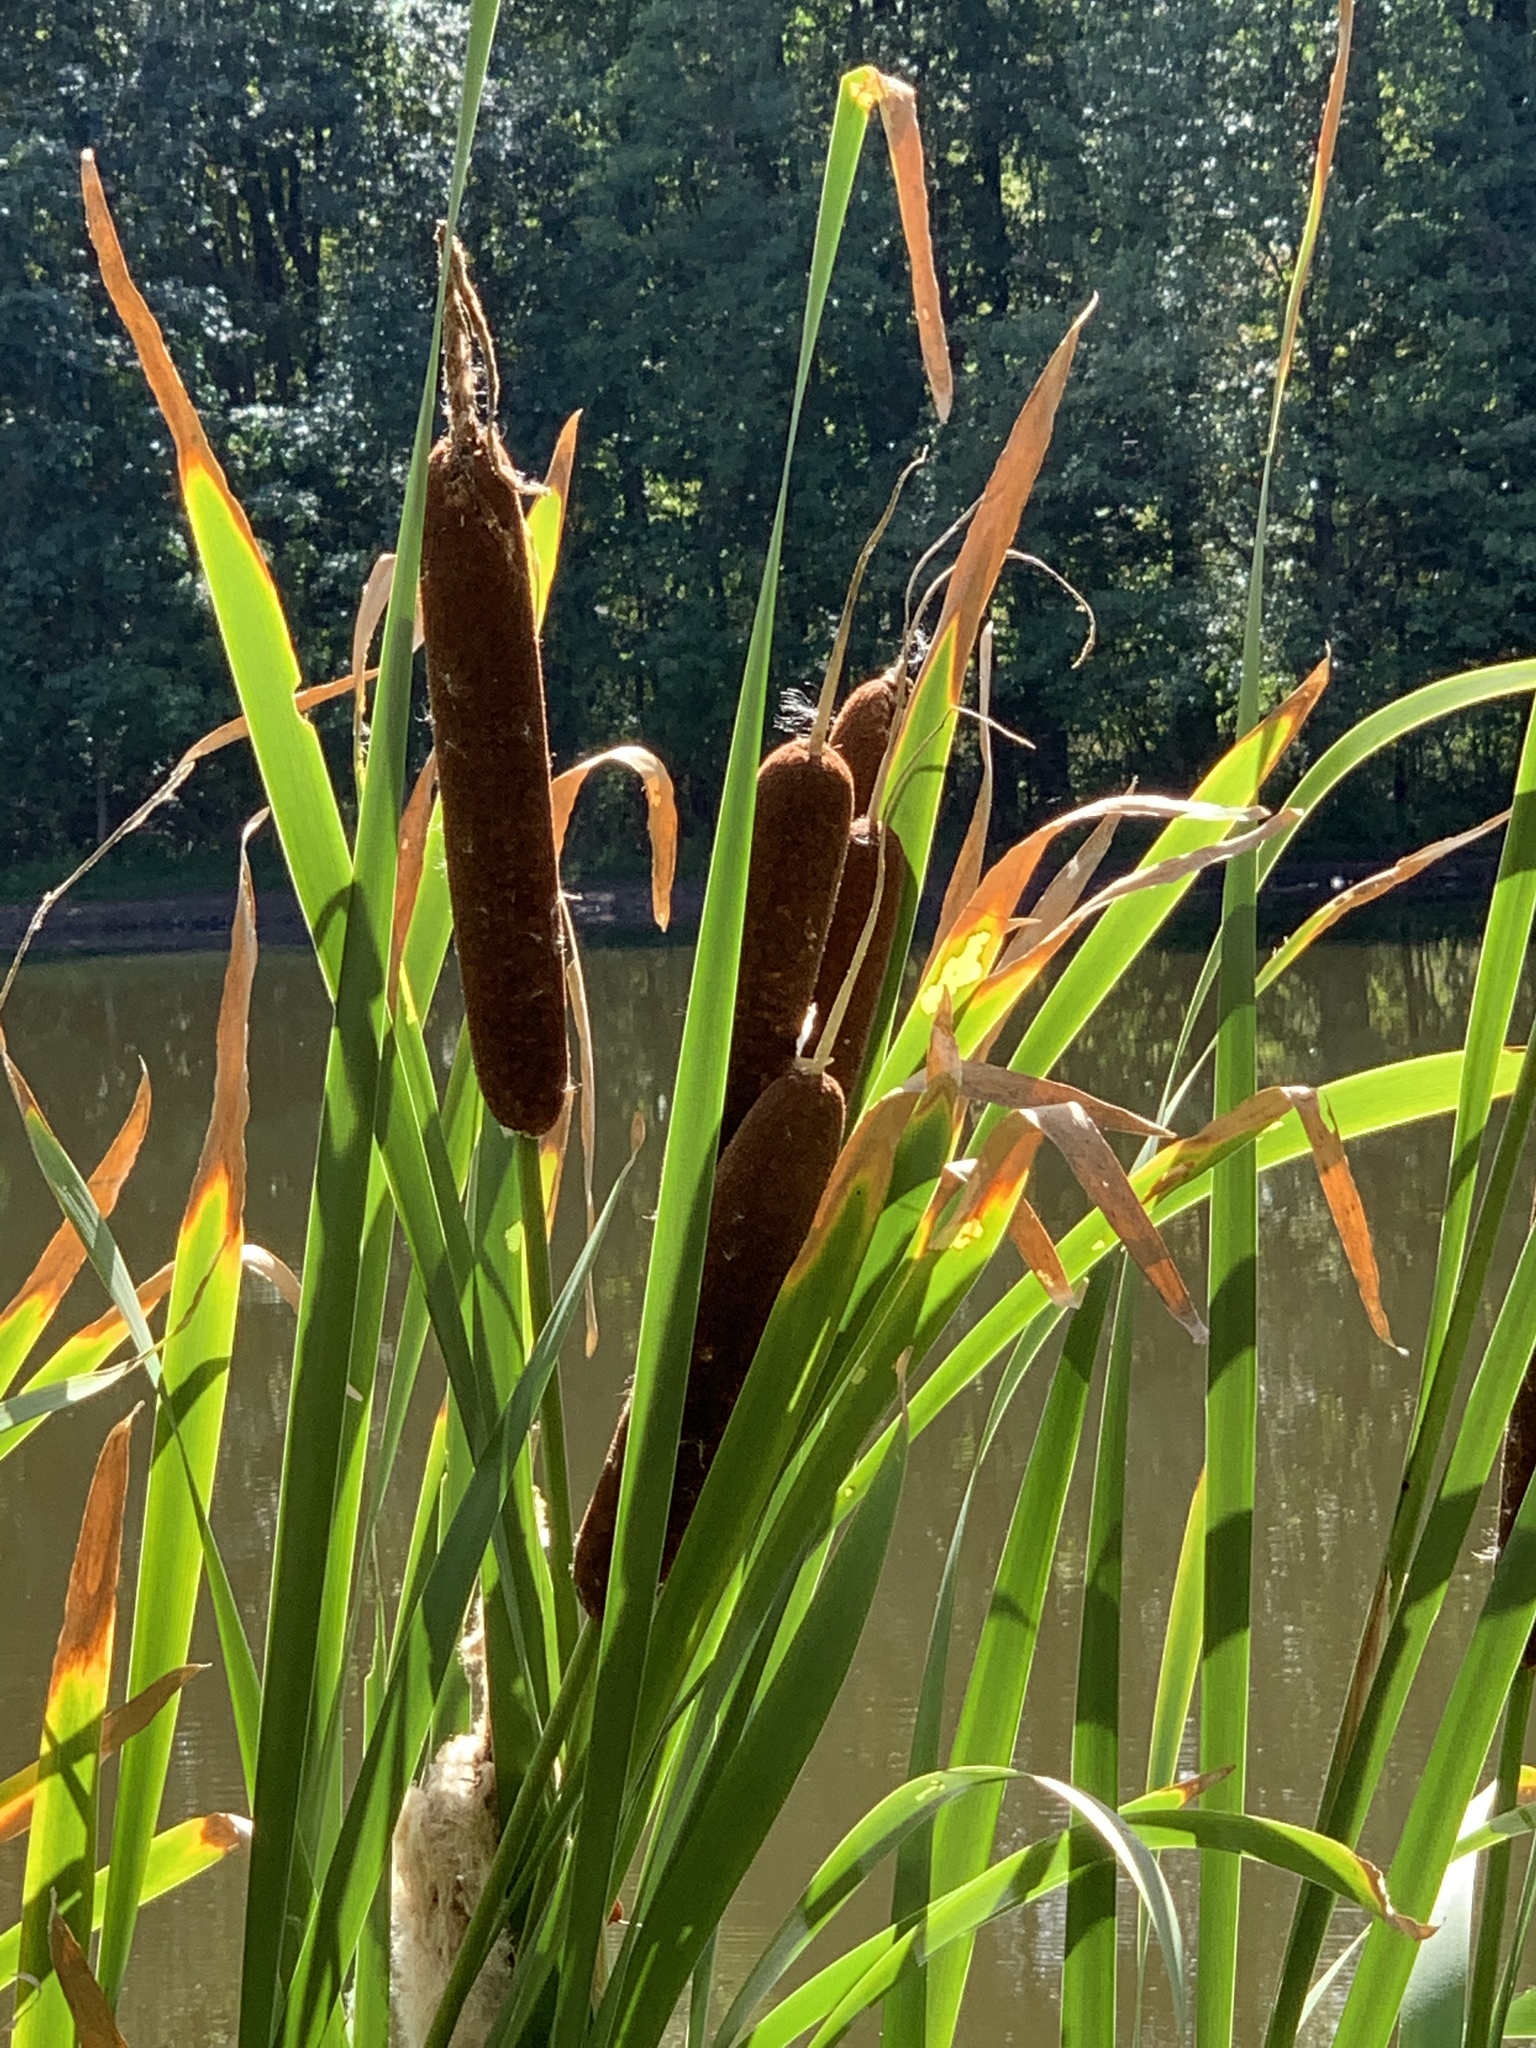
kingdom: Plantae
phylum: Tracheophyta
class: Liliopsida
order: Poales
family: Typhaceae
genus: Typha
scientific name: Typha latifolia
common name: Broadleaf cattail
